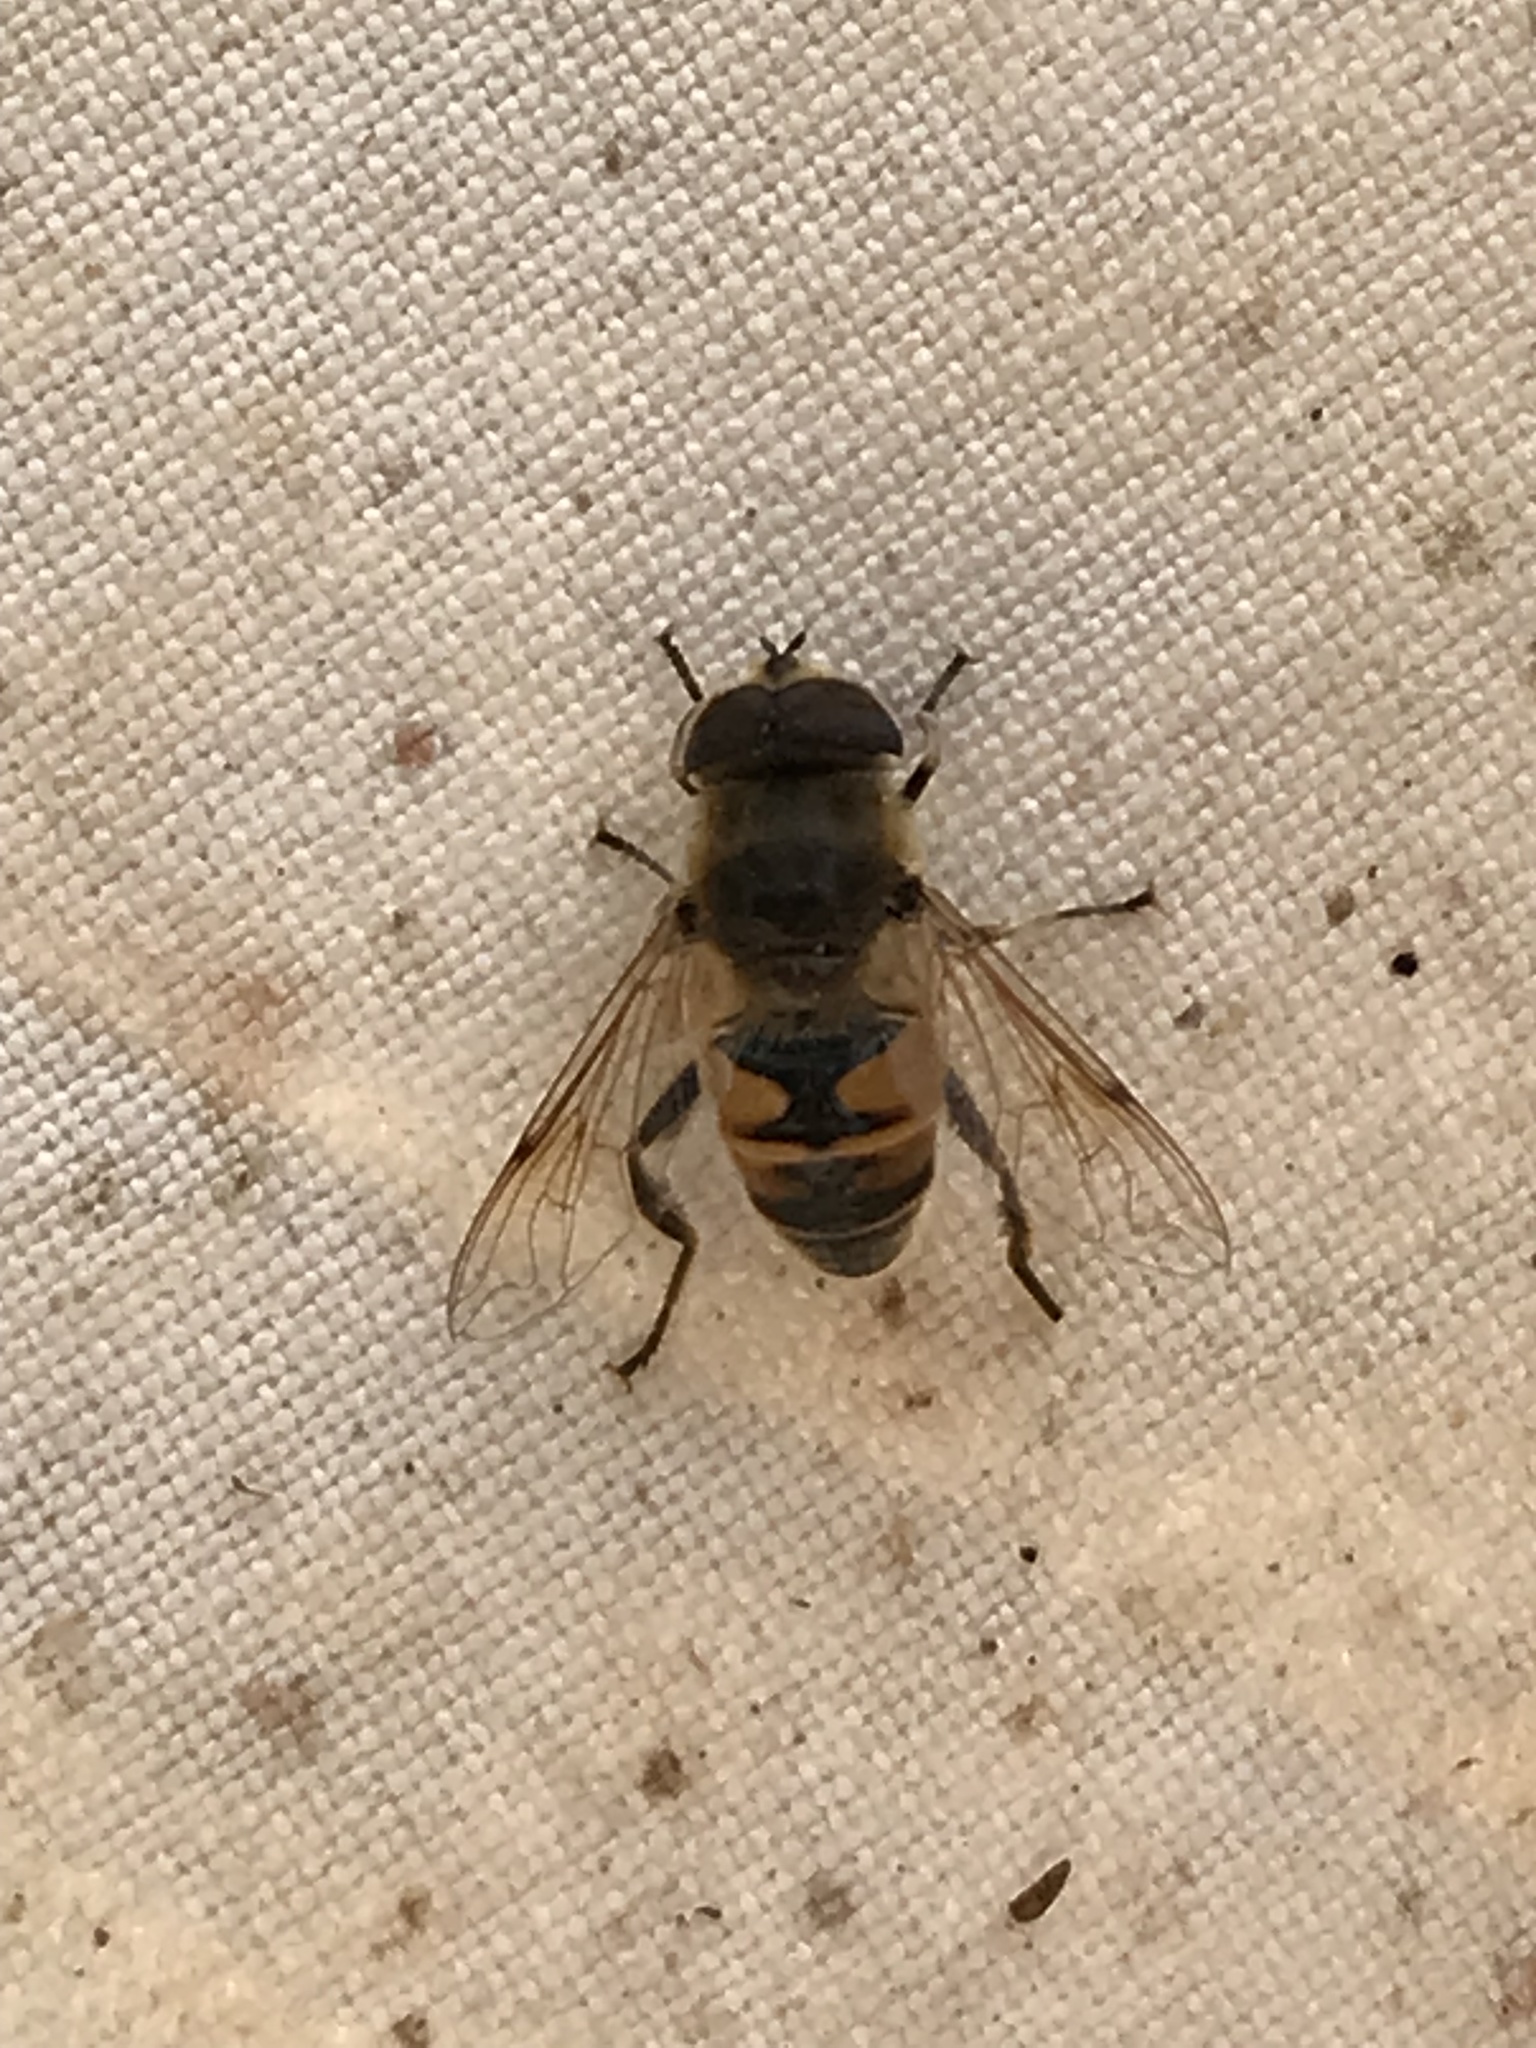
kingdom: Animalia
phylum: Arthropoda
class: Insecta
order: Diptera
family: Syrphidae
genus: Eristalis
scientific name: Eristalis tenax
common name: Drone fly
